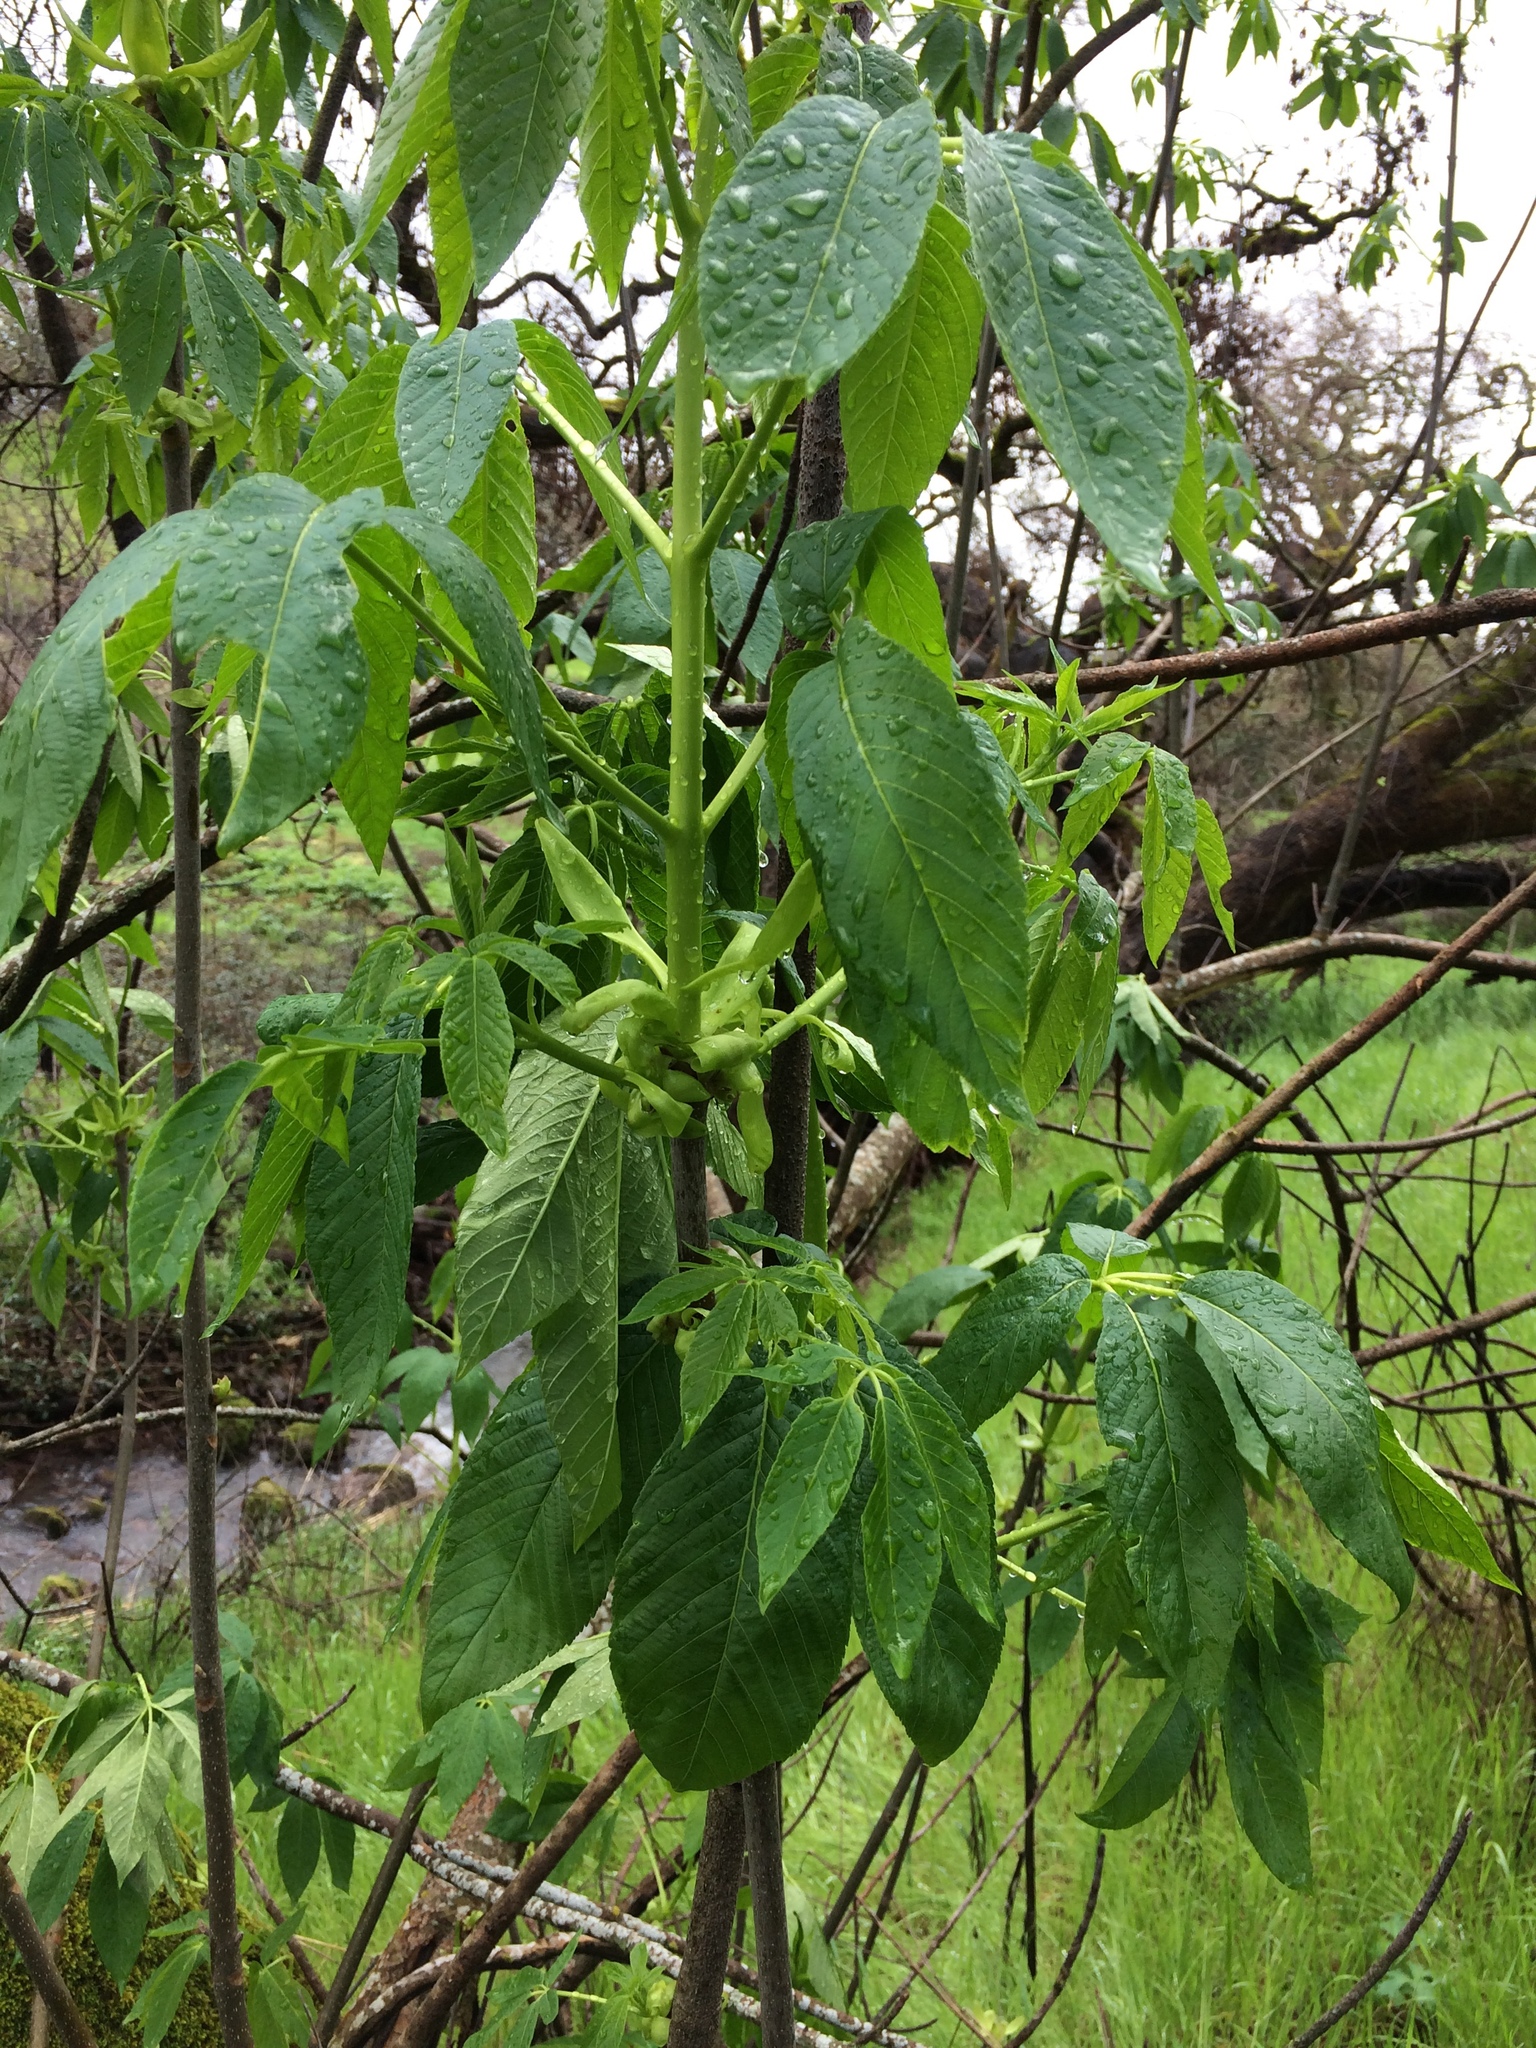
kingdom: Plantae
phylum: Tracheophyta
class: Magnoliopsida
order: Sapindales
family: Sapindaceae
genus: Aesculus
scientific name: Aesculus californica
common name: California buckeye
